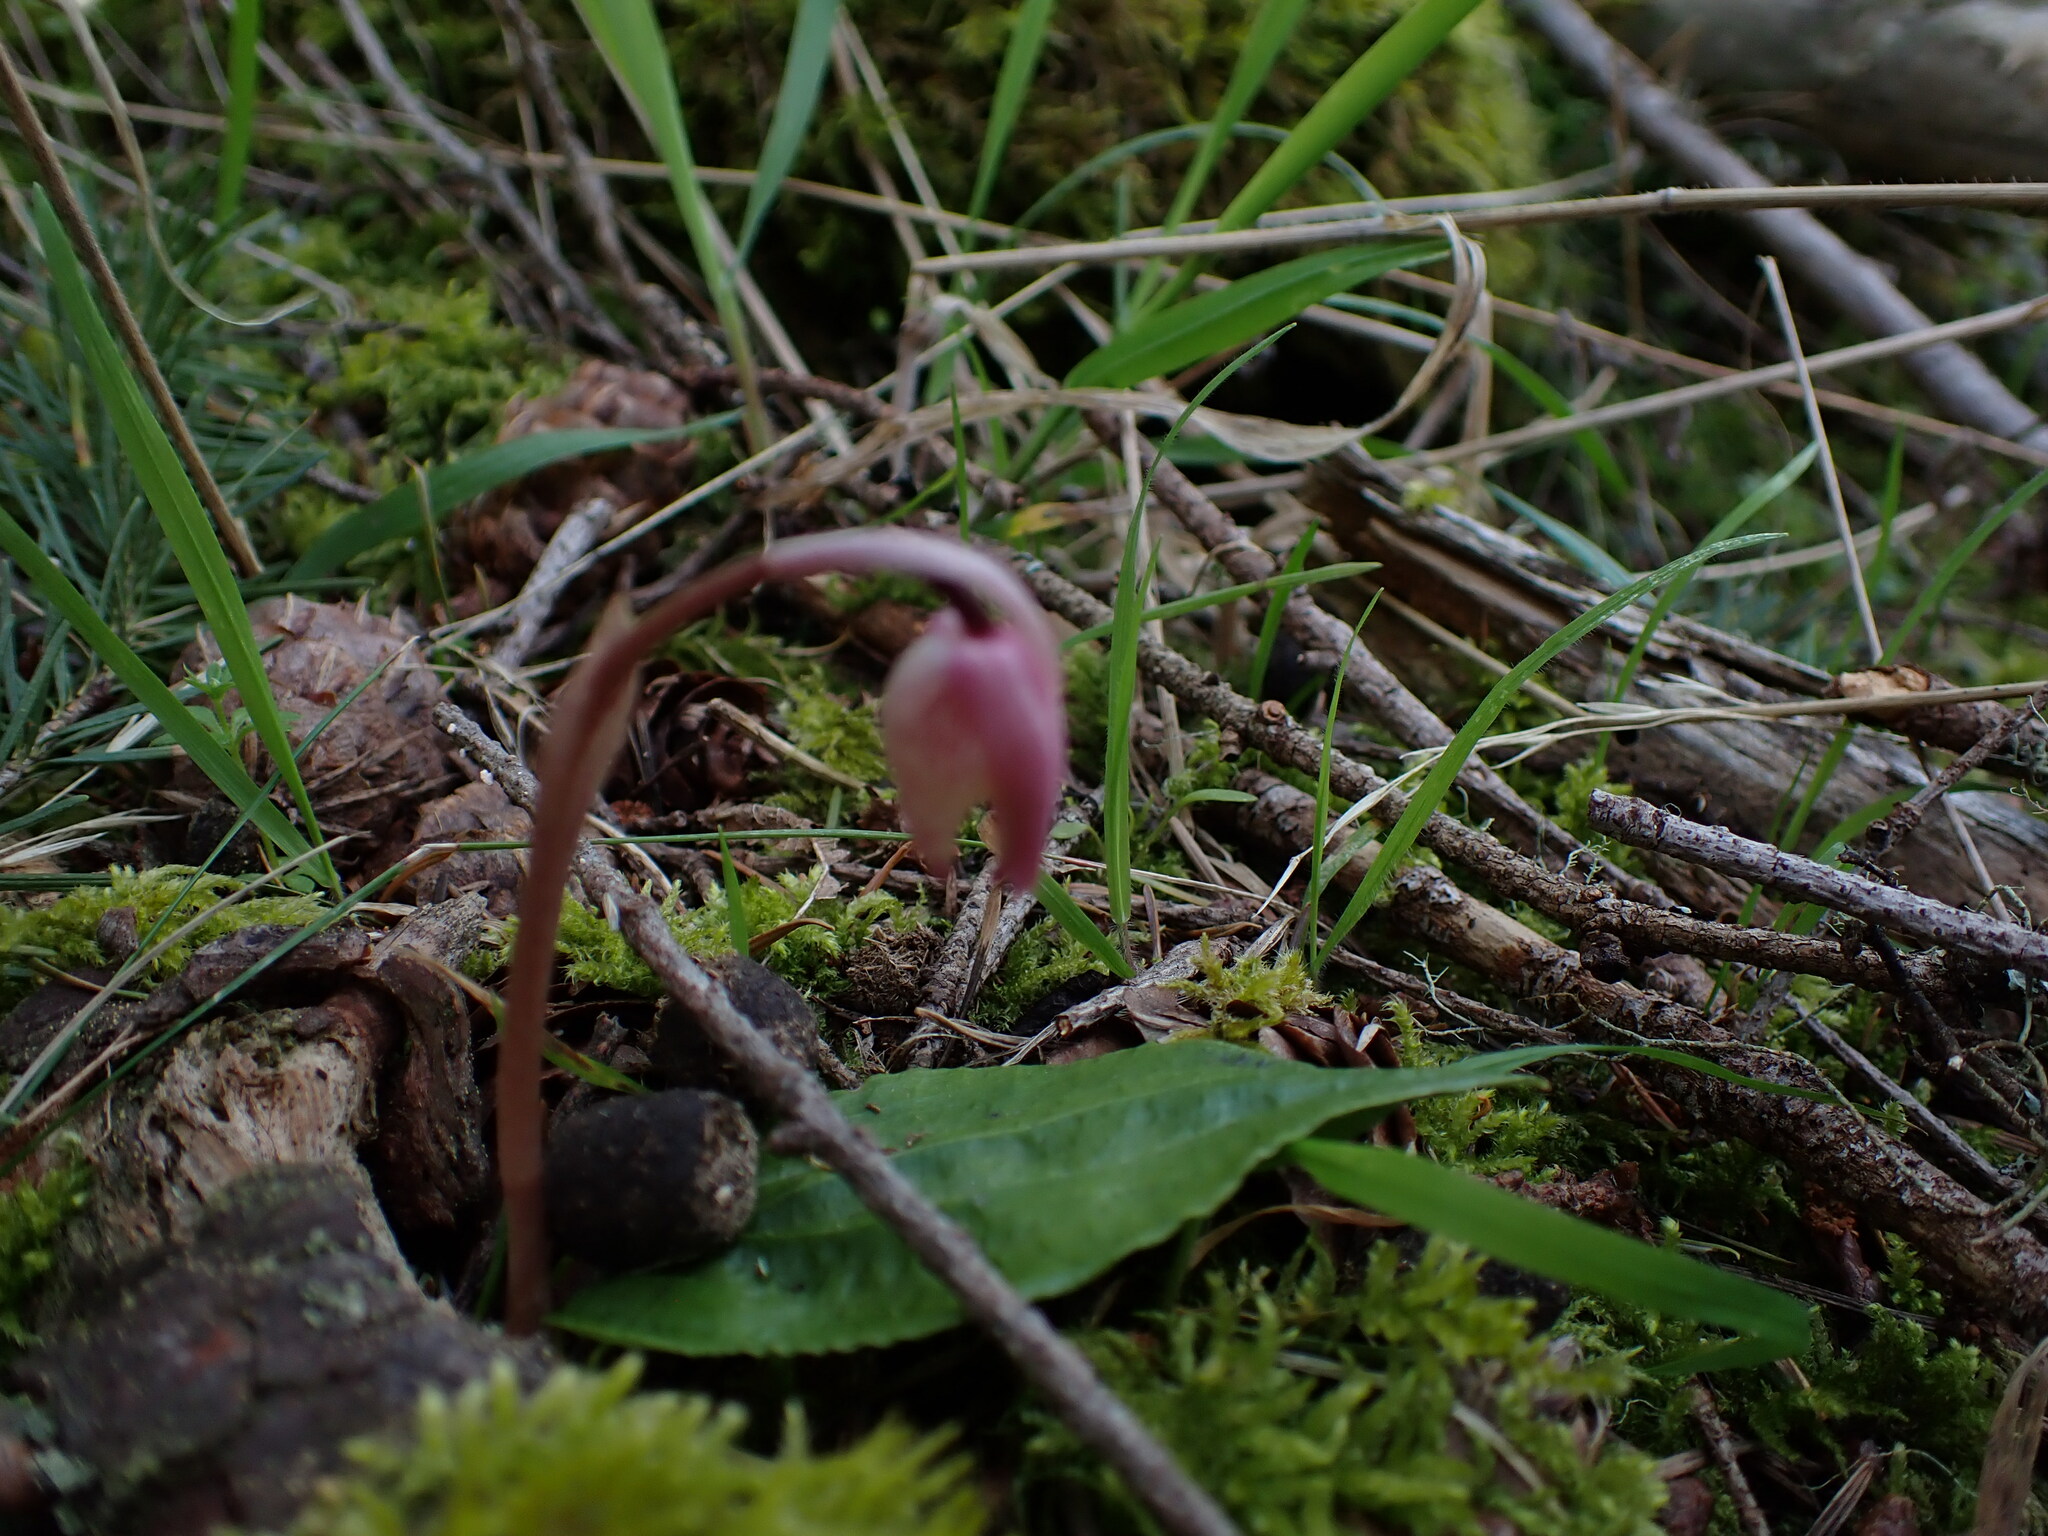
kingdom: Plantae
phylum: Tracheophyta
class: Liliopsida
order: Asparagales
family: Orchidaceae
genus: Calypso
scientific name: Calypso bulbosa
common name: Calypso
